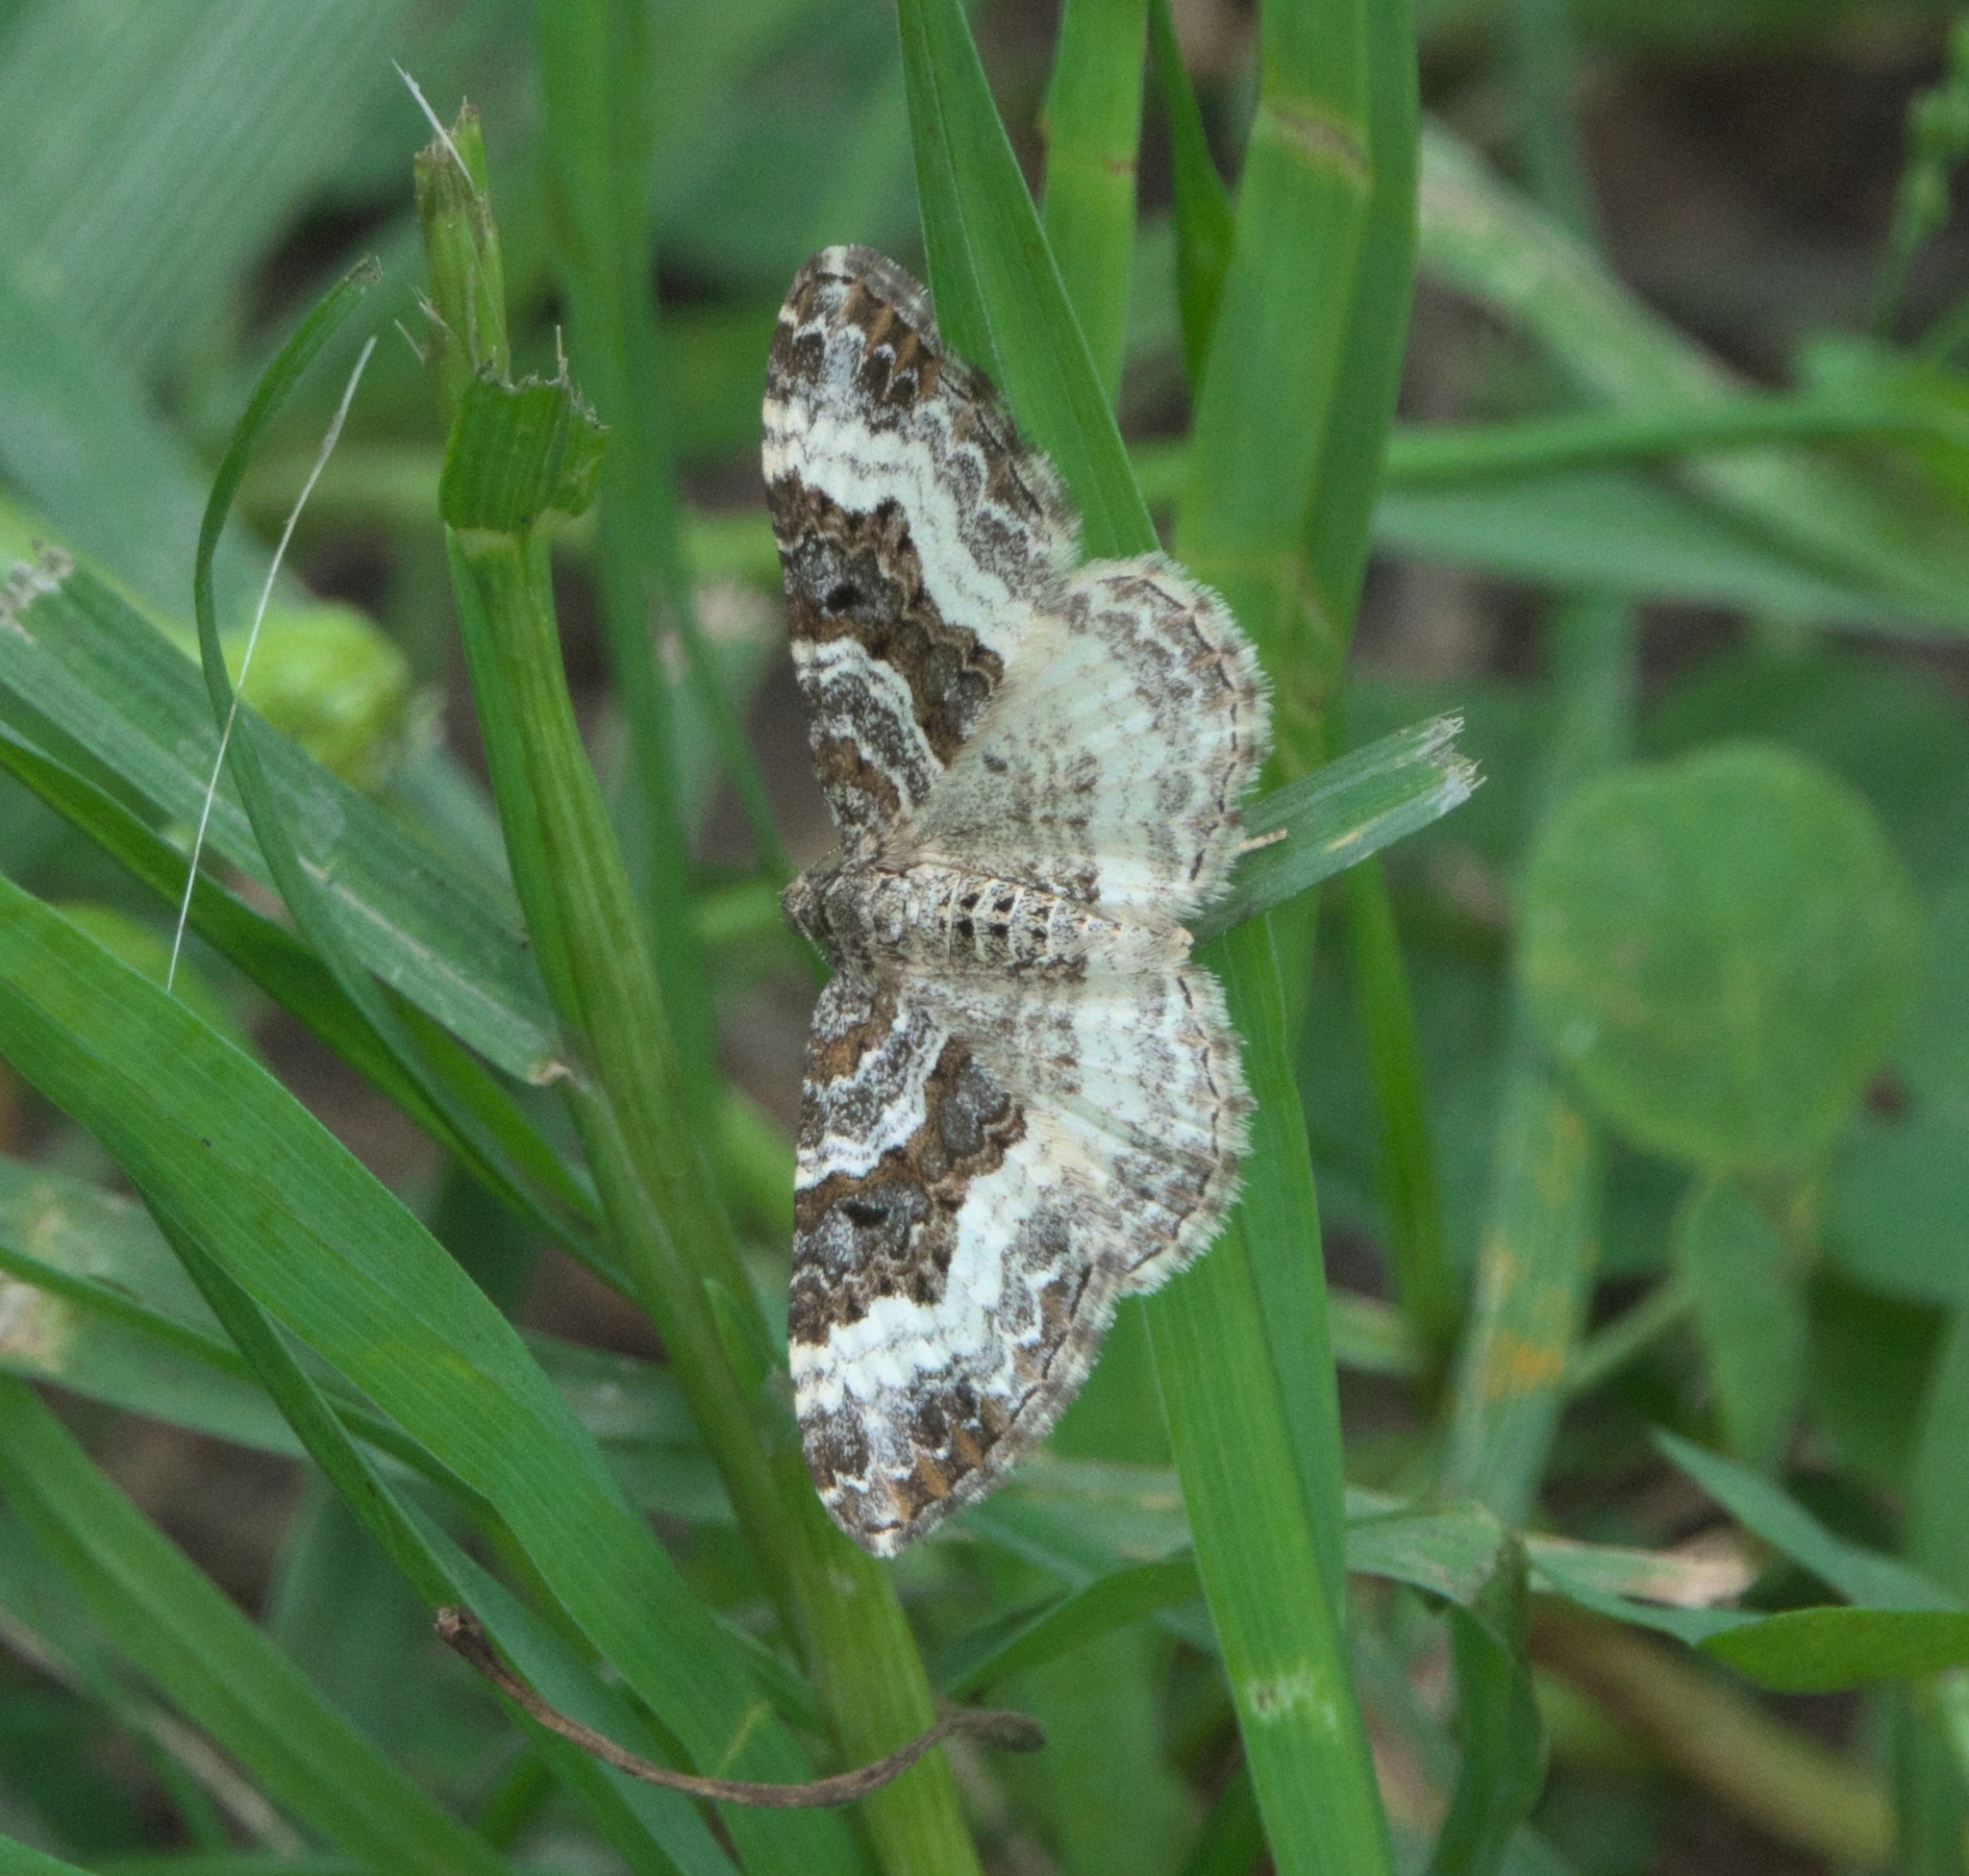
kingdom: Animalia
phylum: Arthropoda
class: Insecta
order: Lepidoptera
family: Geometridae
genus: Epirrhoe
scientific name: Epirrhoe alternata
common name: Common carpet
